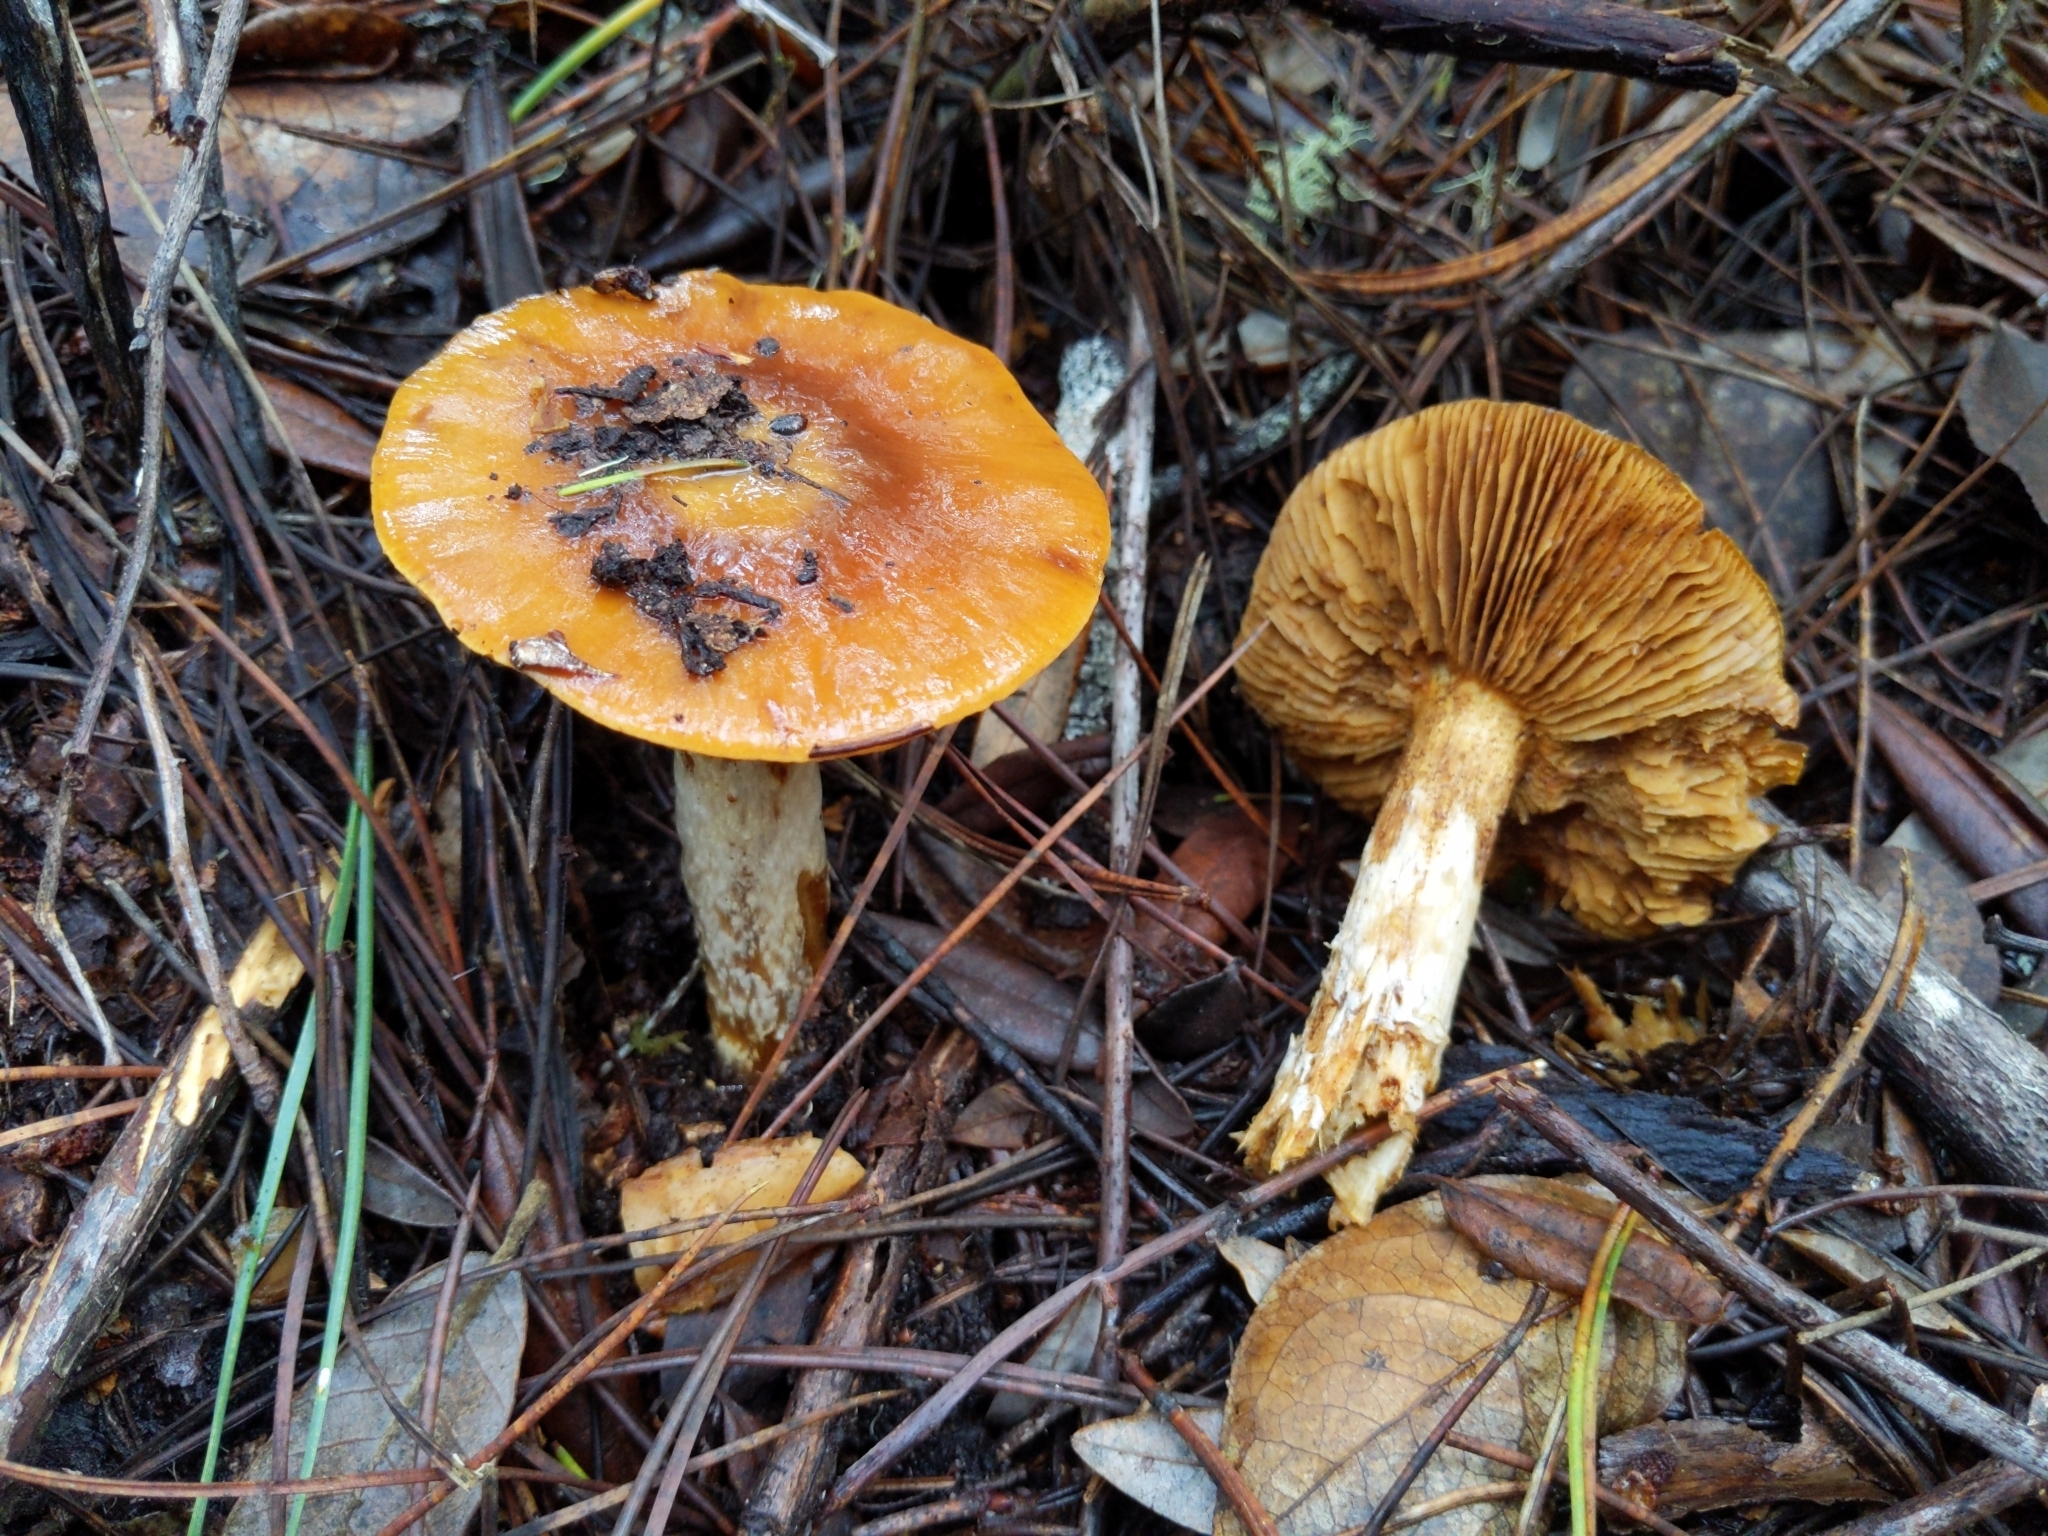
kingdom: Fungi
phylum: Basidiomycota
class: Agaricomycetes
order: Agaricales
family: Cortinariaceae
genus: Cortinarius
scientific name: Cortinarius mucosus
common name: Orange webcap
